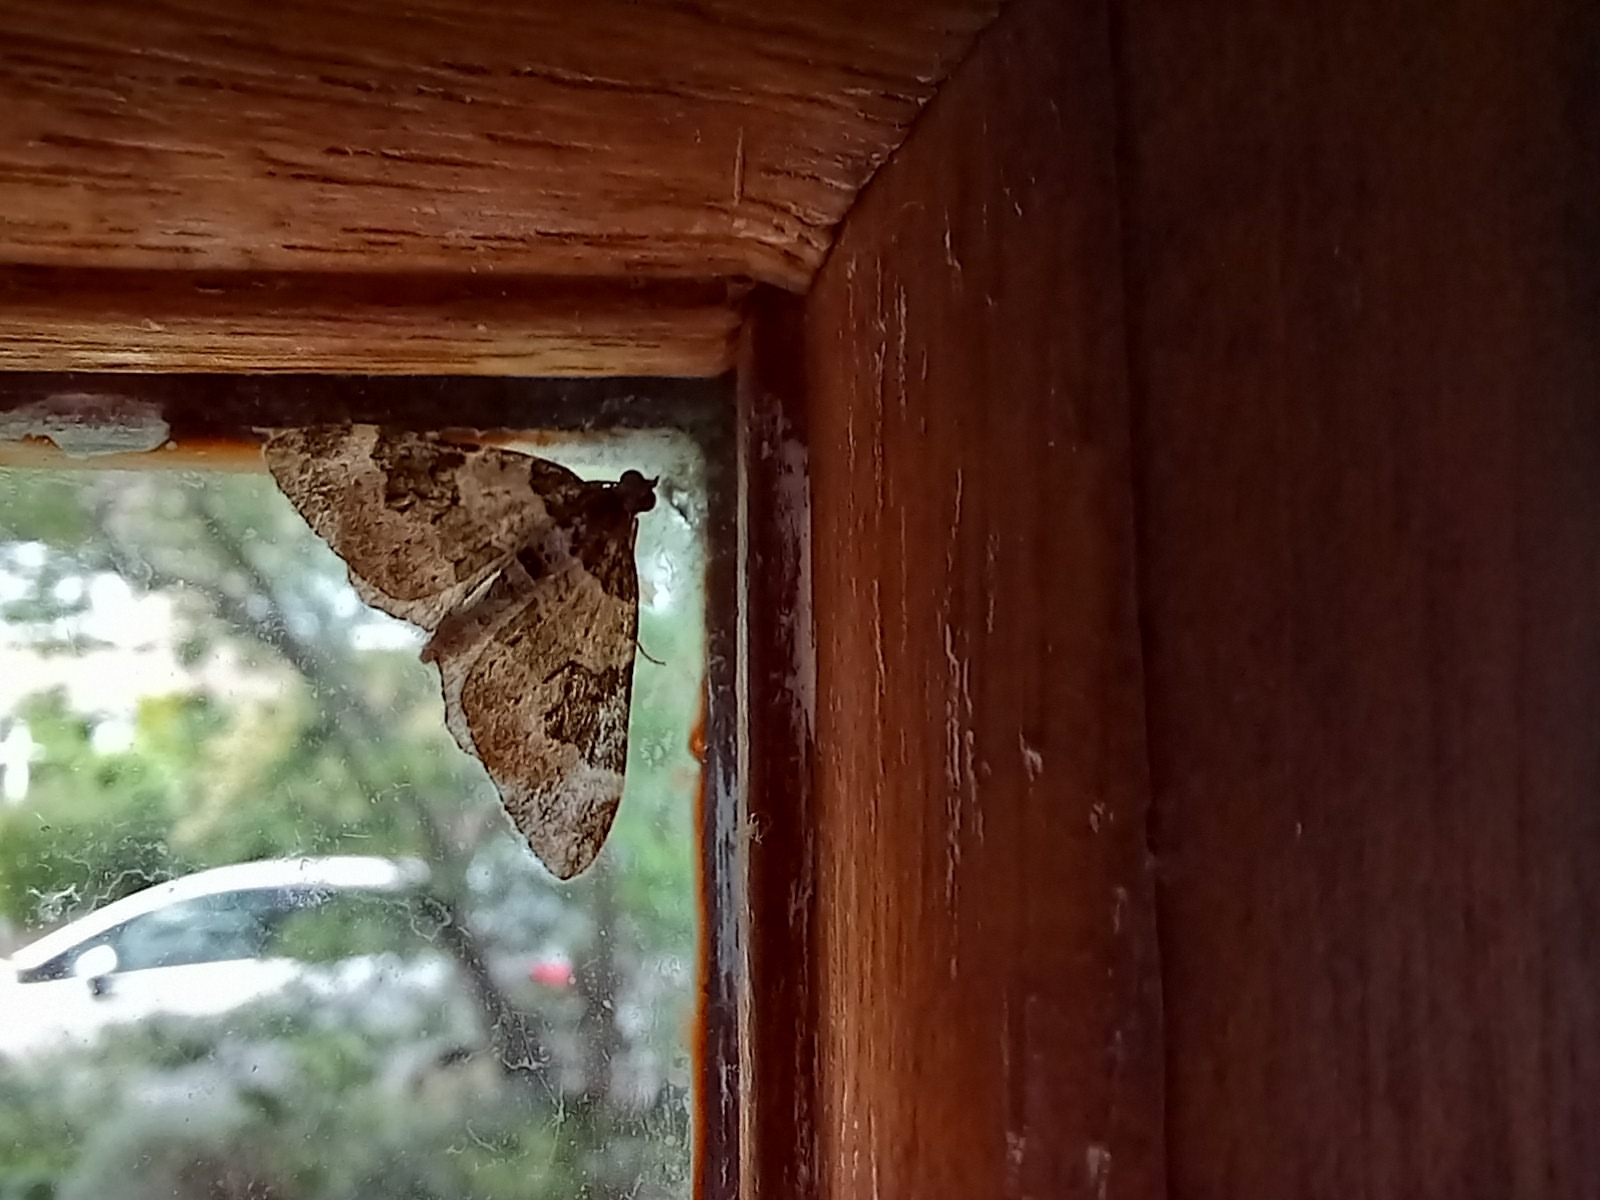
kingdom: Animalia
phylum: Arthropoda
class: Insecta
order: Lepidoptera
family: Geometridae
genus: Xanthorhoe
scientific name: Xanthorhoe fluctuata
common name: Garden carpet
